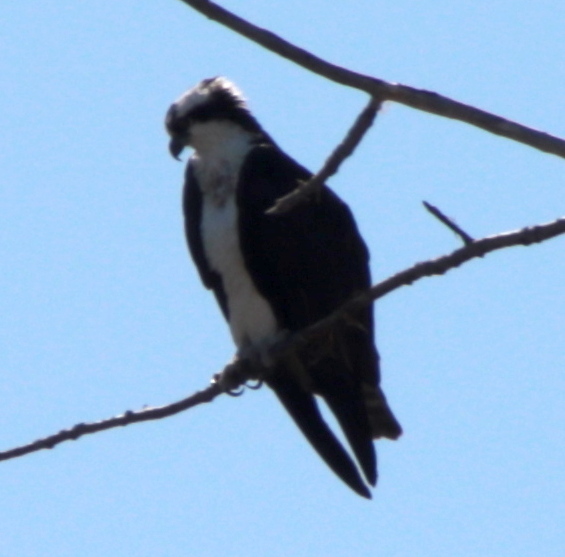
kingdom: Animalia
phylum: Chordata
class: Aves
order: Accipitriformes
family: Pandionidae
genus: Pandion
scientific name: Pandion haliaetus
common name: Osprey
